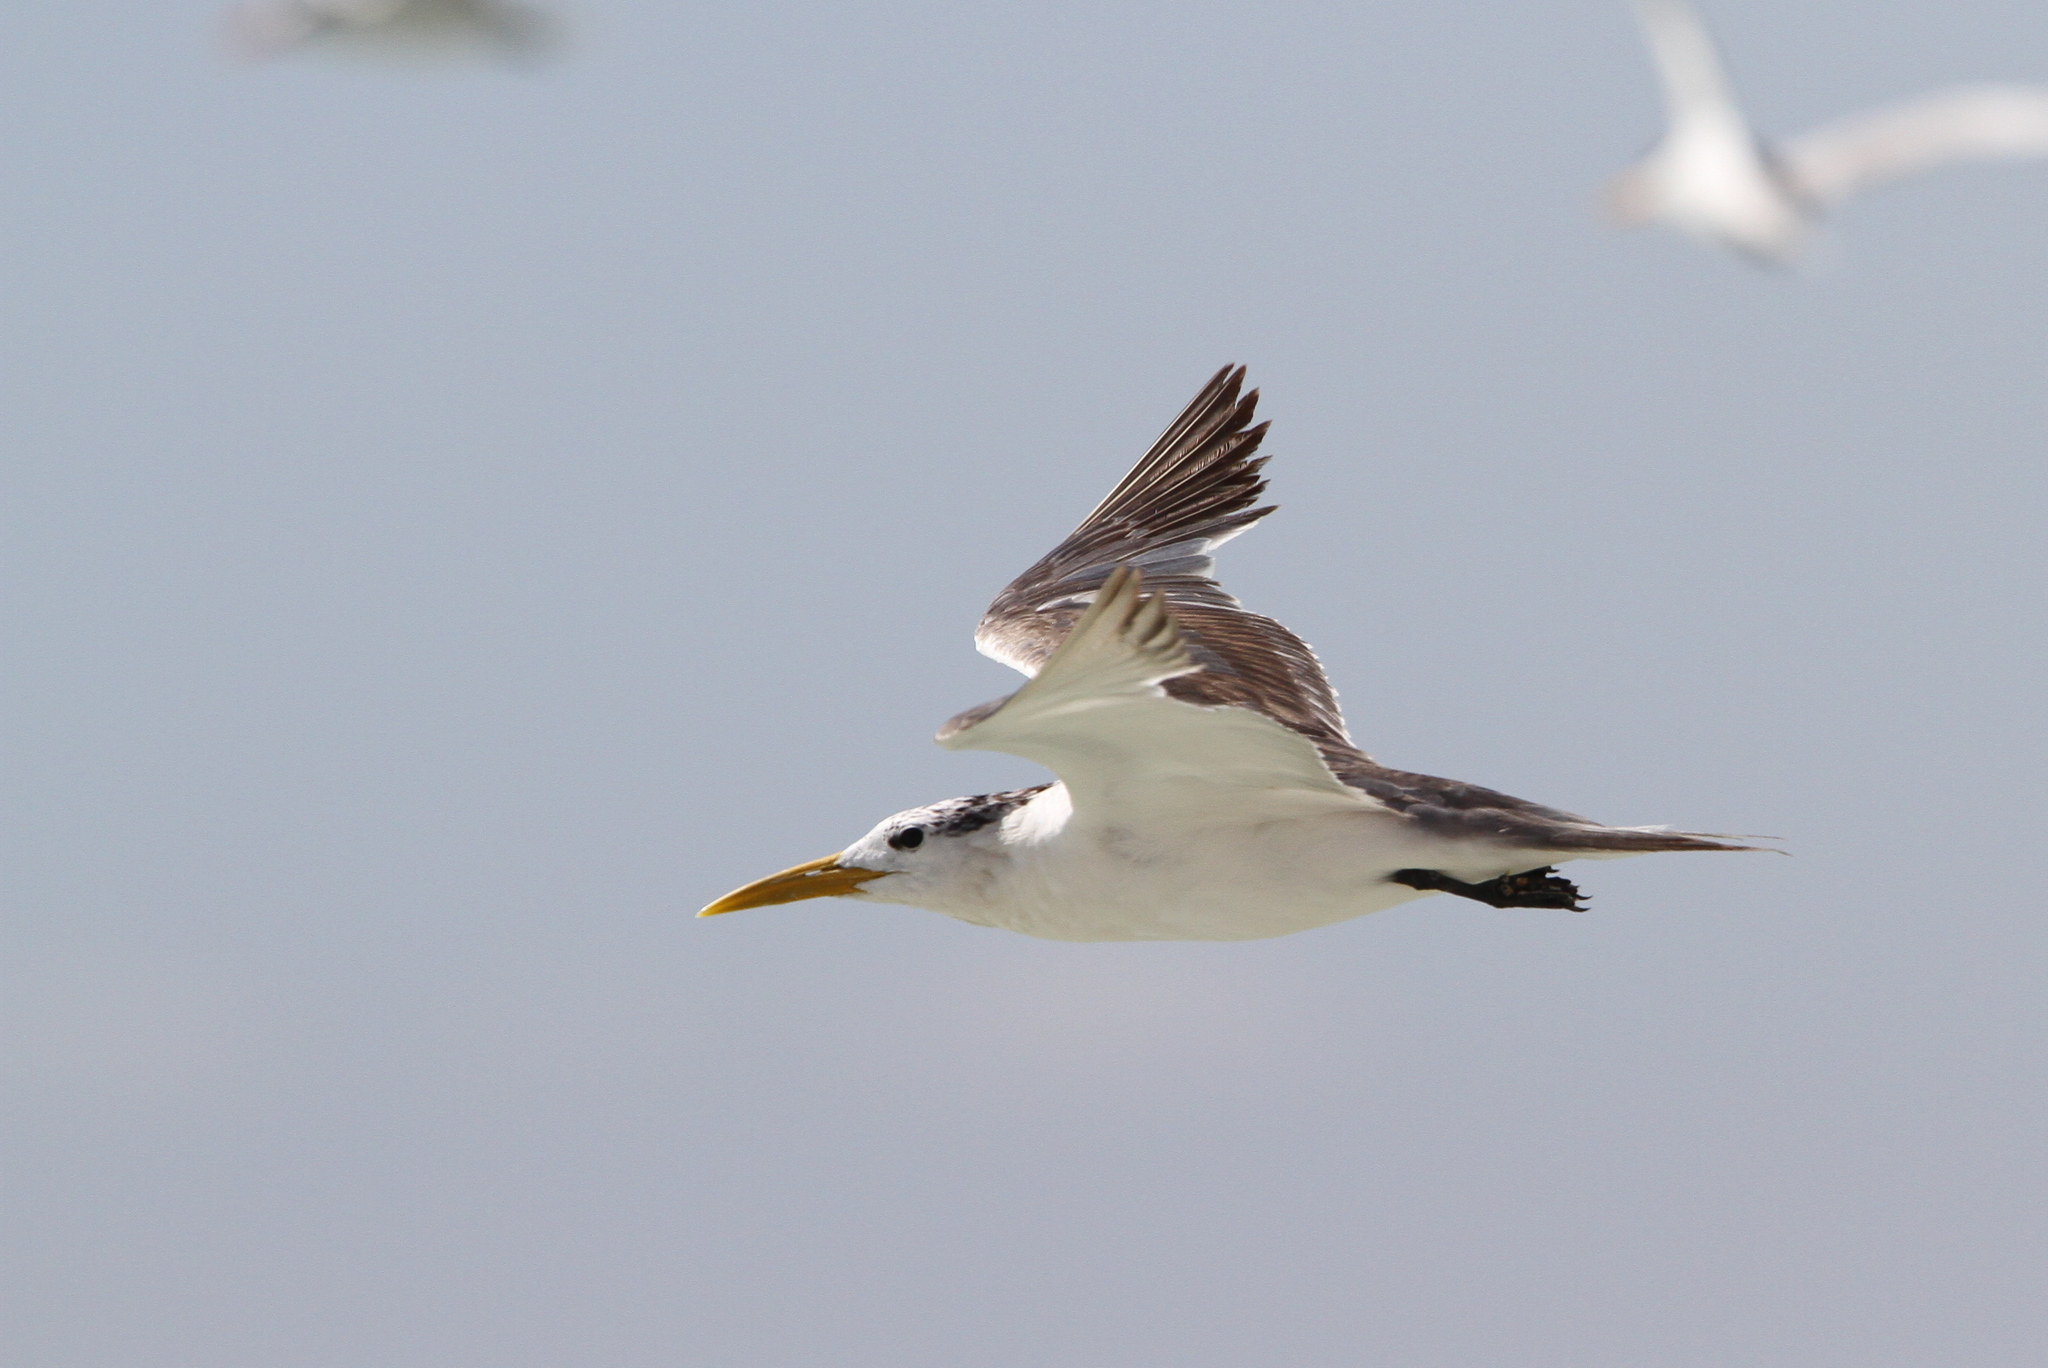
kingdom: Animalia
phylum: Chordata
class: Aves
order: Charadriiformes
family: Laridae
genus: Thalasseus
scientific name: Thalasseus bergii
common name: Greater crested tern
